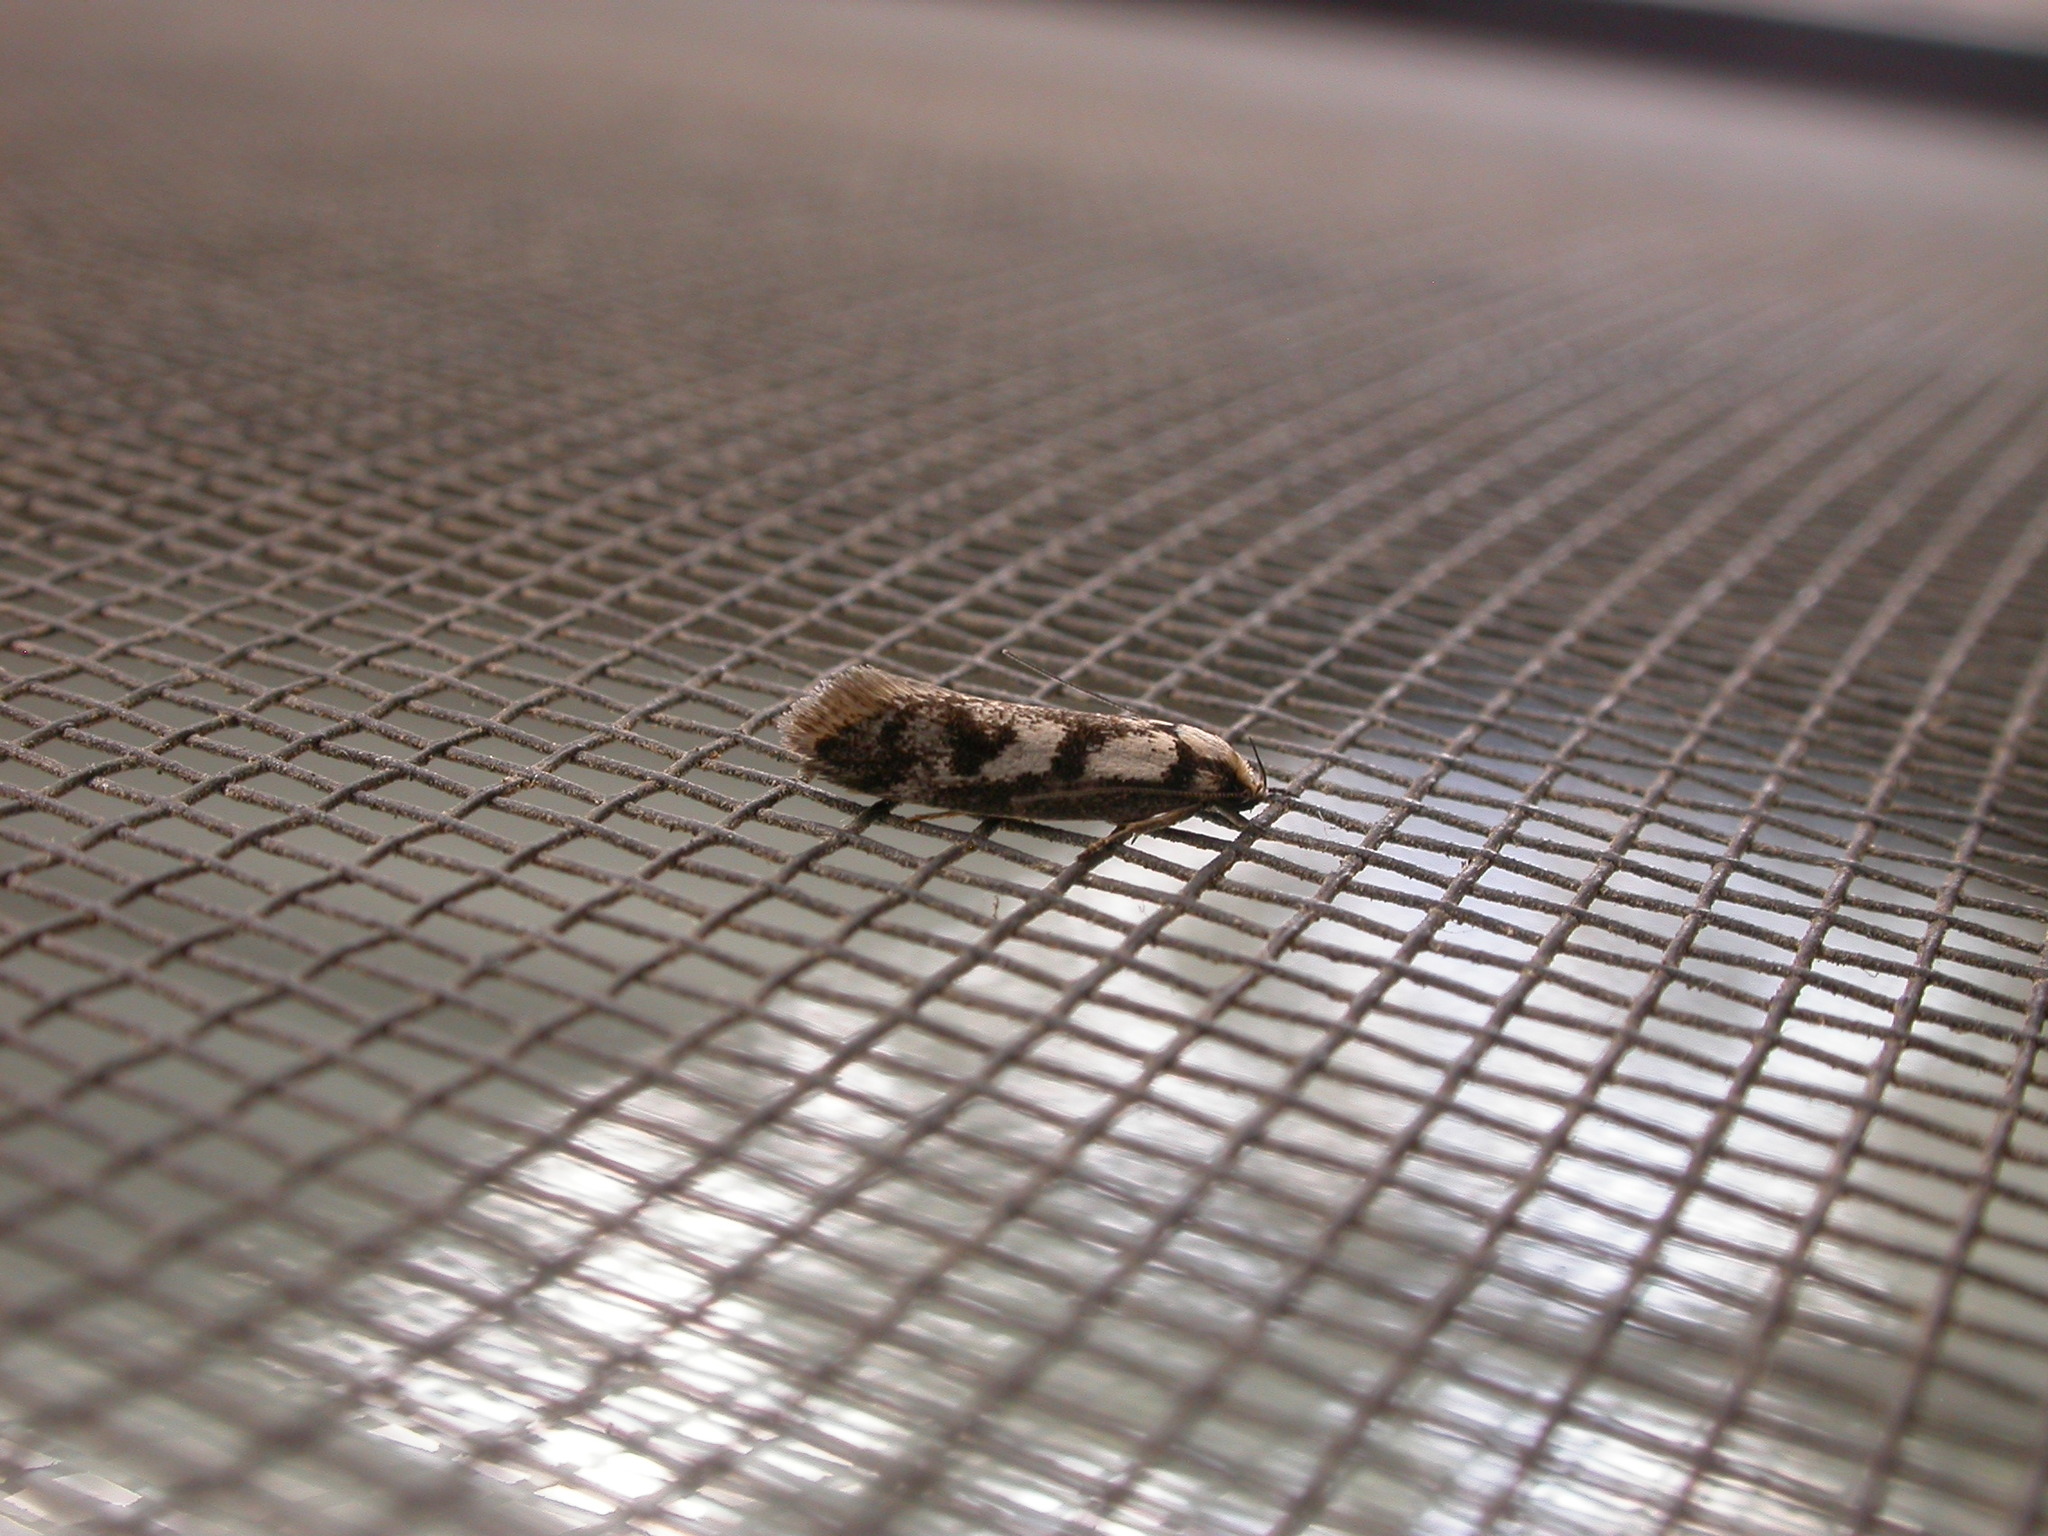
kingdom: Animalia
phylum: Arthropoda
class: Insecta
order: Lepidoptera
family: Oecophoridae
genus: Eusemocosma
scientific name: Eusemocosma pruinosa
